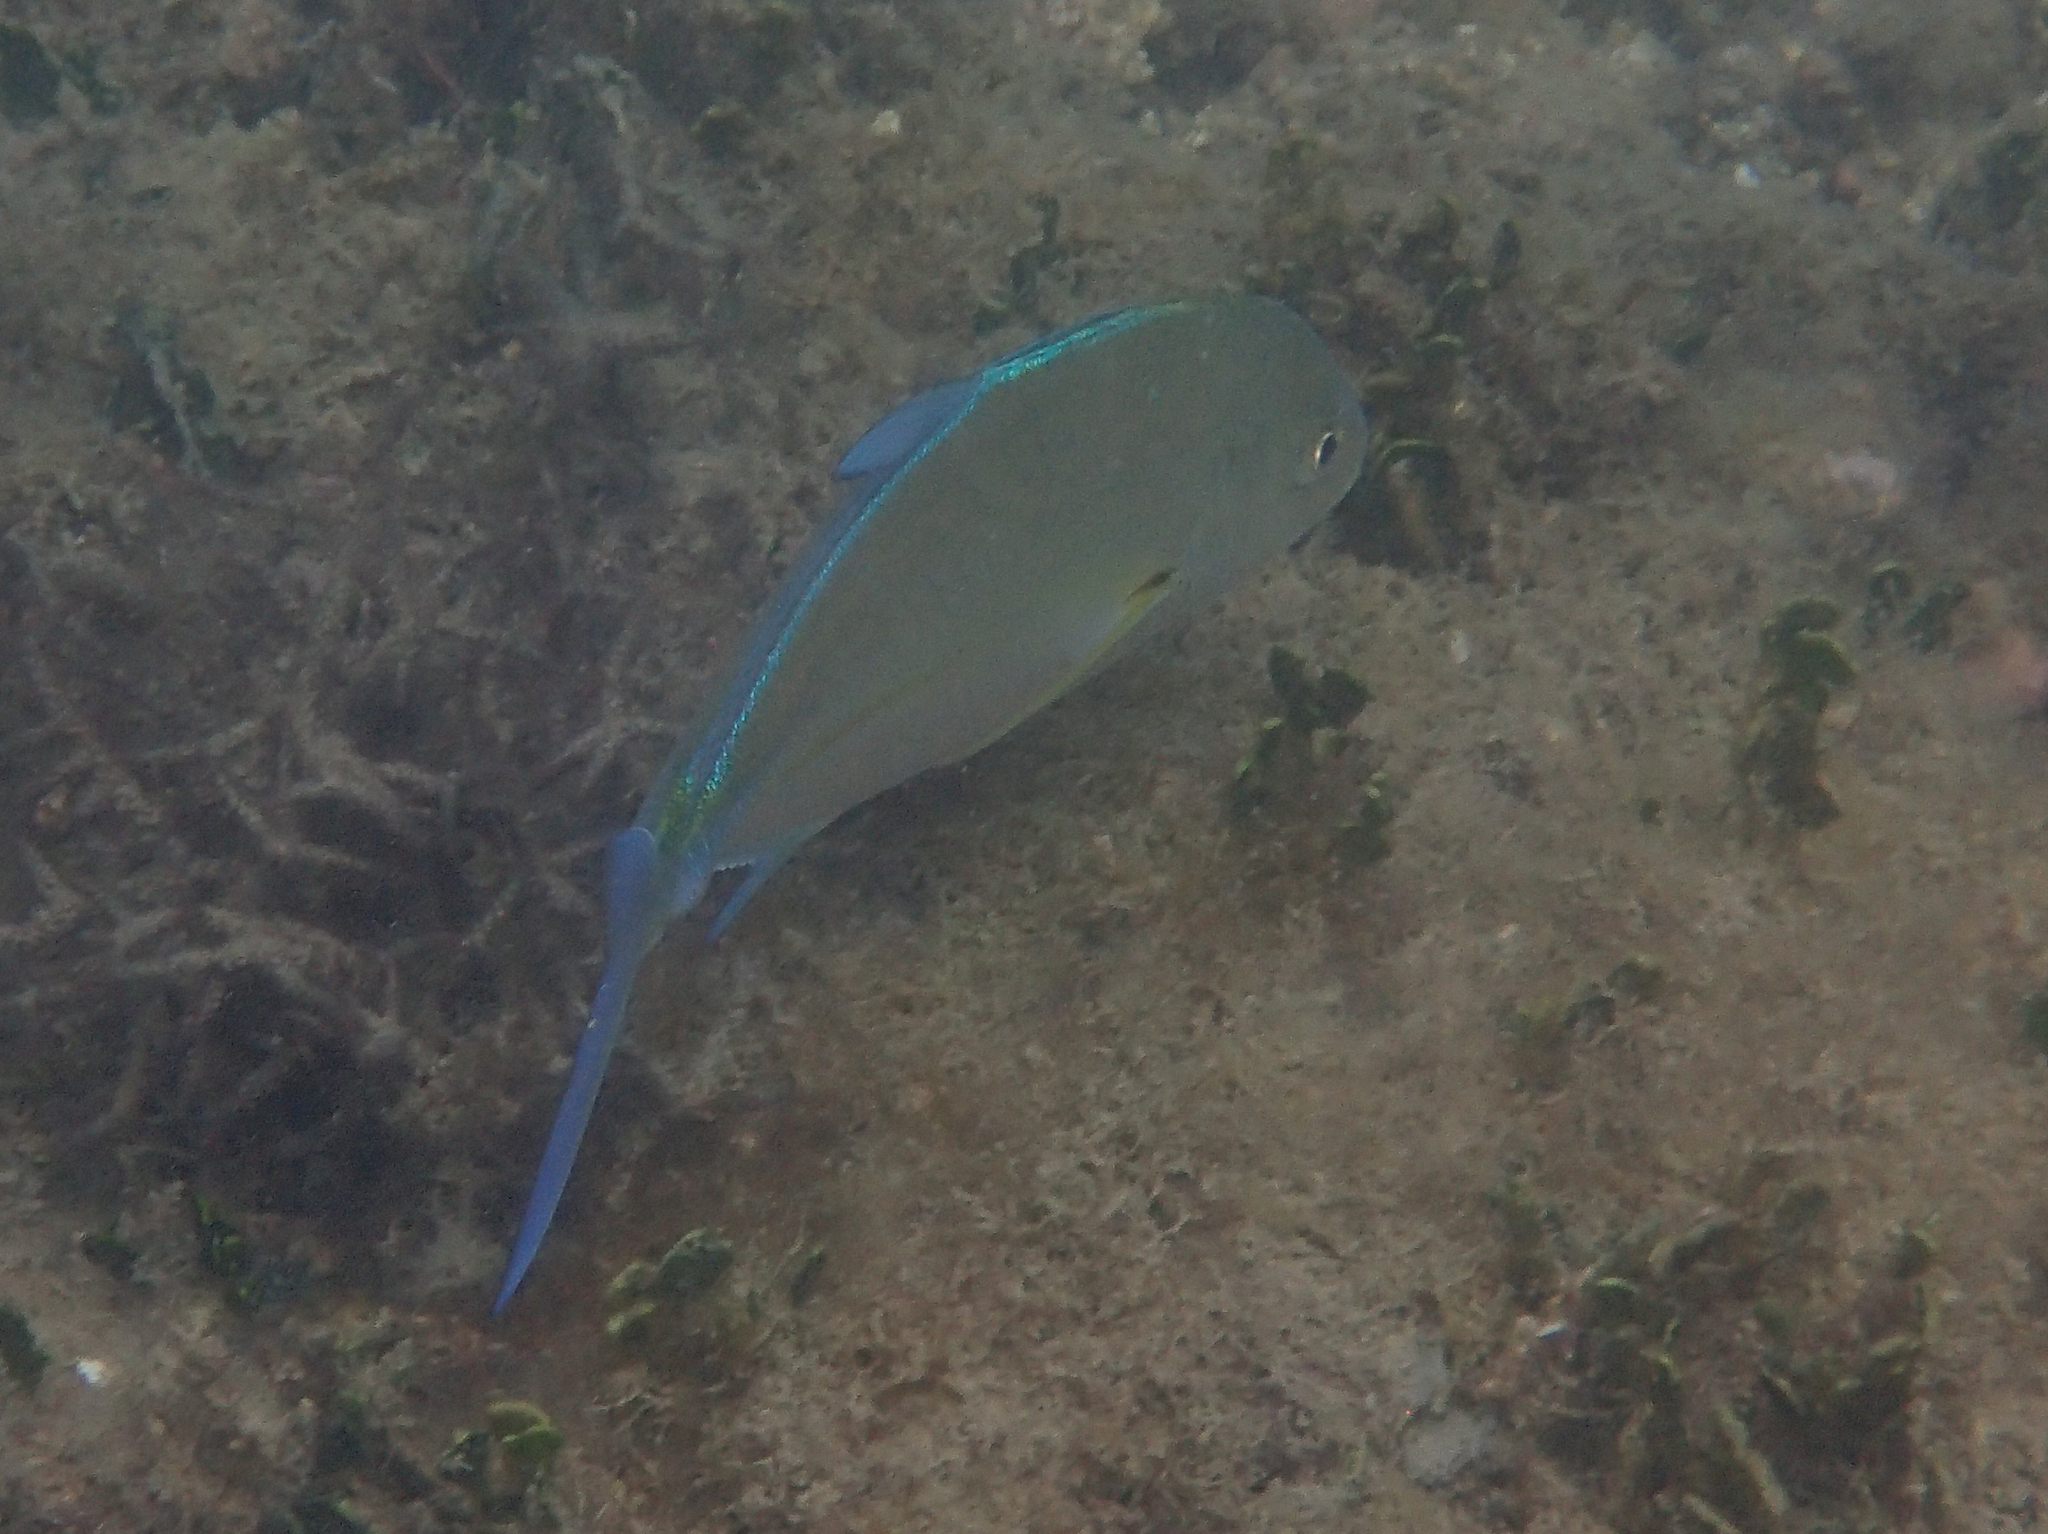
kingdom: Animalia
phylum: Chordata
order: Perciformes
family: Carangidae
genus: Caranx
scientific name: Caranx melampygus
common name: Bluefin trevally
